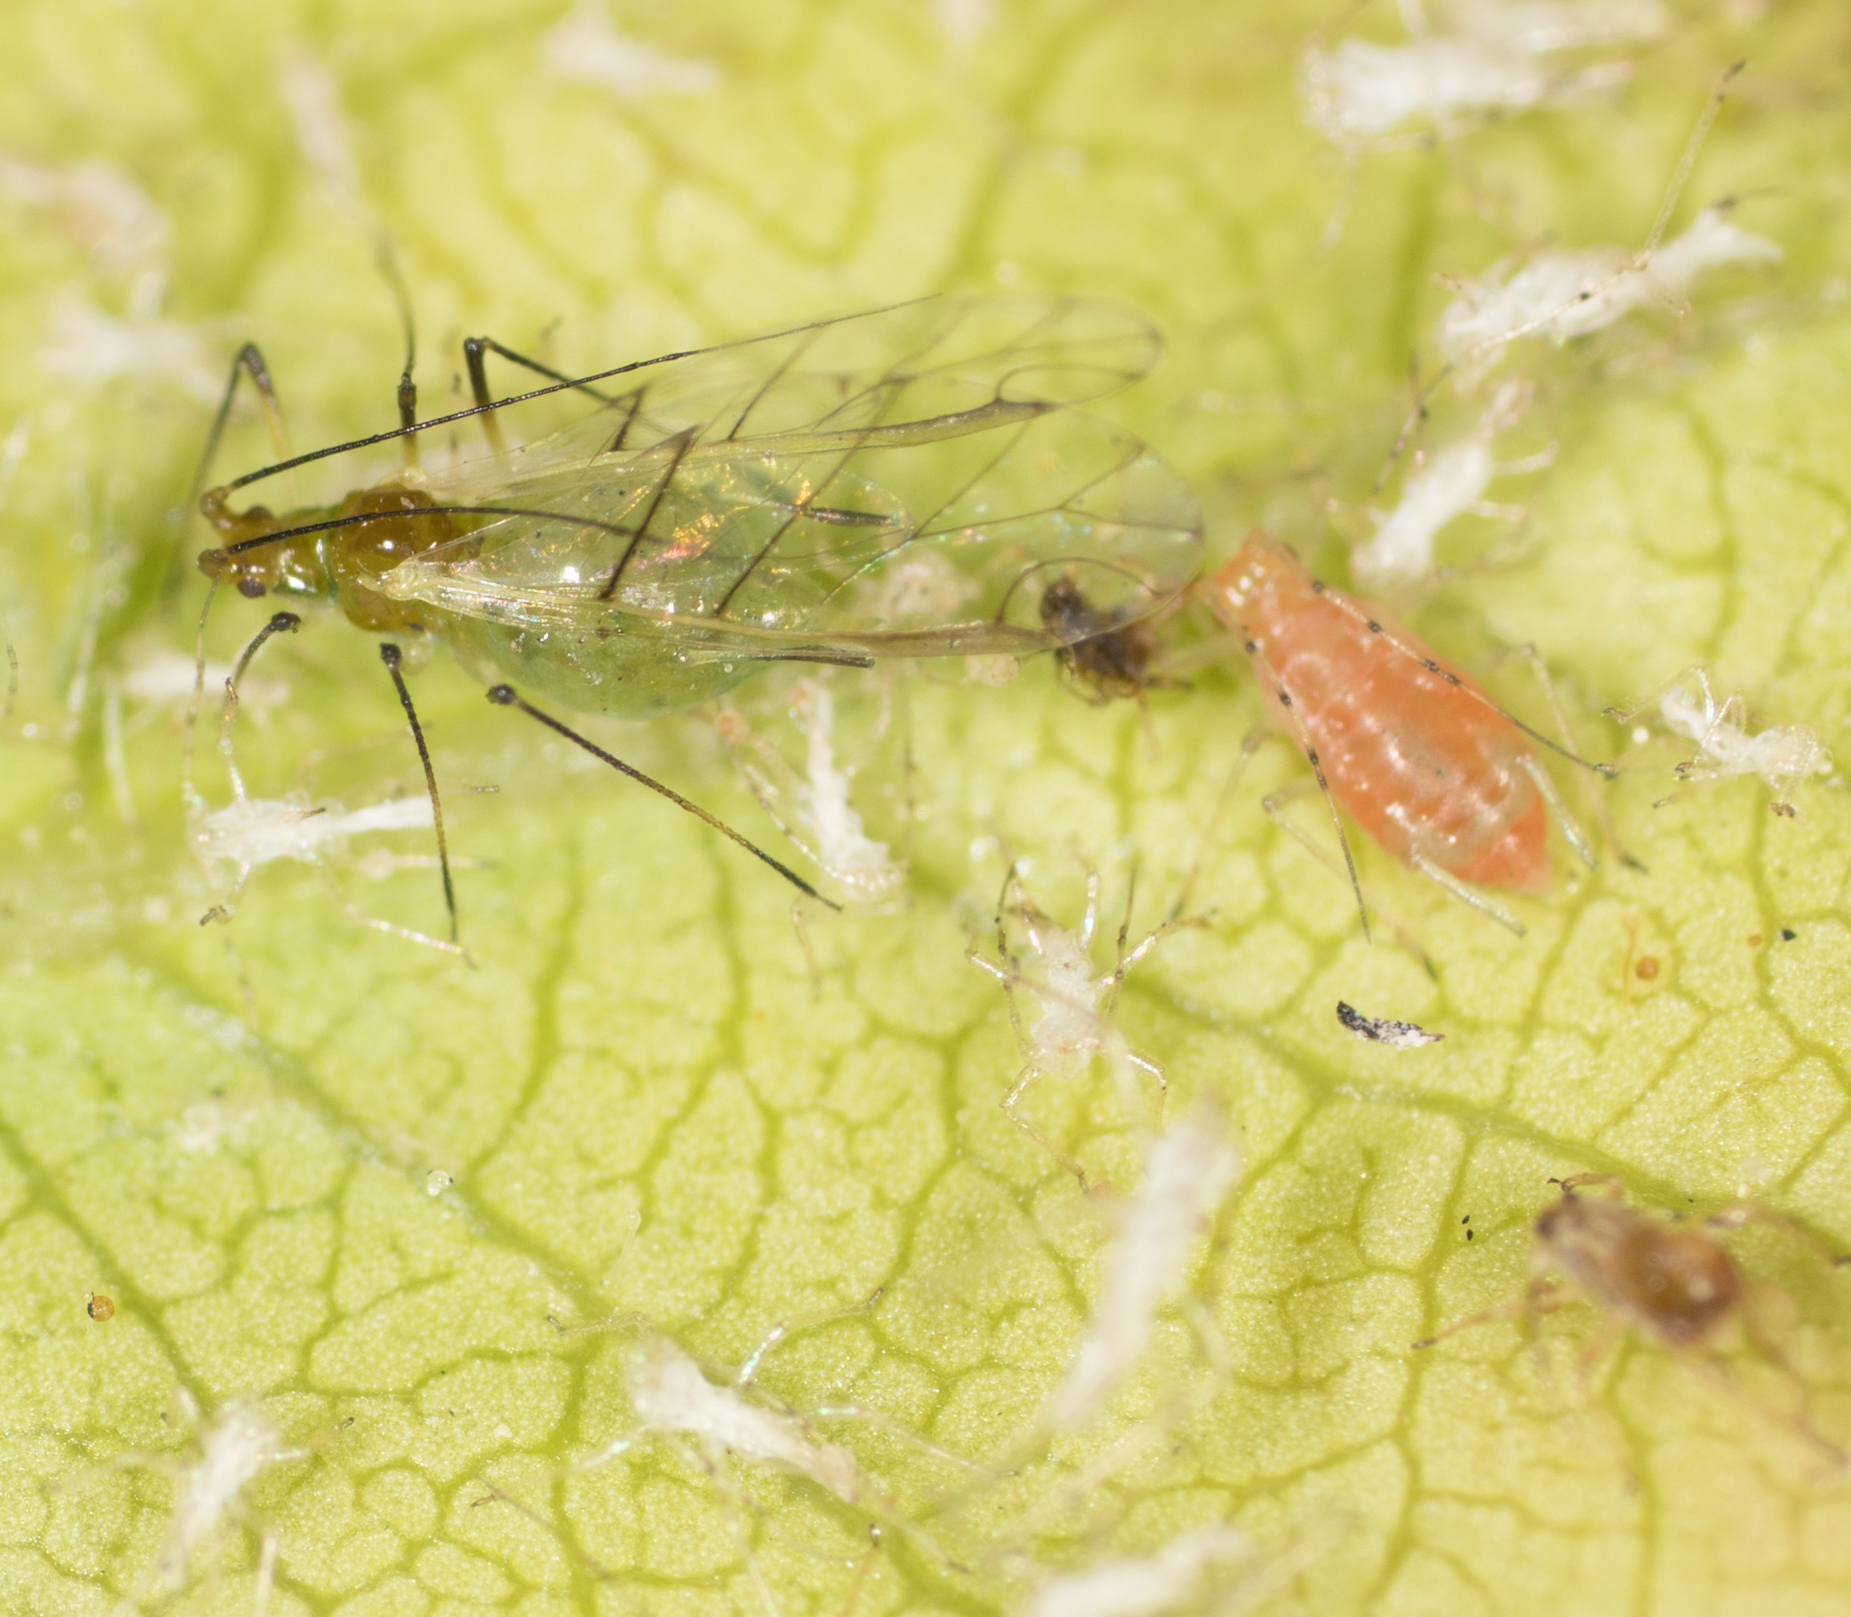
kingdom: Animalia
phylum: Arthropoda
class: Insecta
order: Hemiptera
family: Aphididae
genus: Wahlgreniella
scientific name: Wahlgreniella nervata
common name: Pale green aphid
